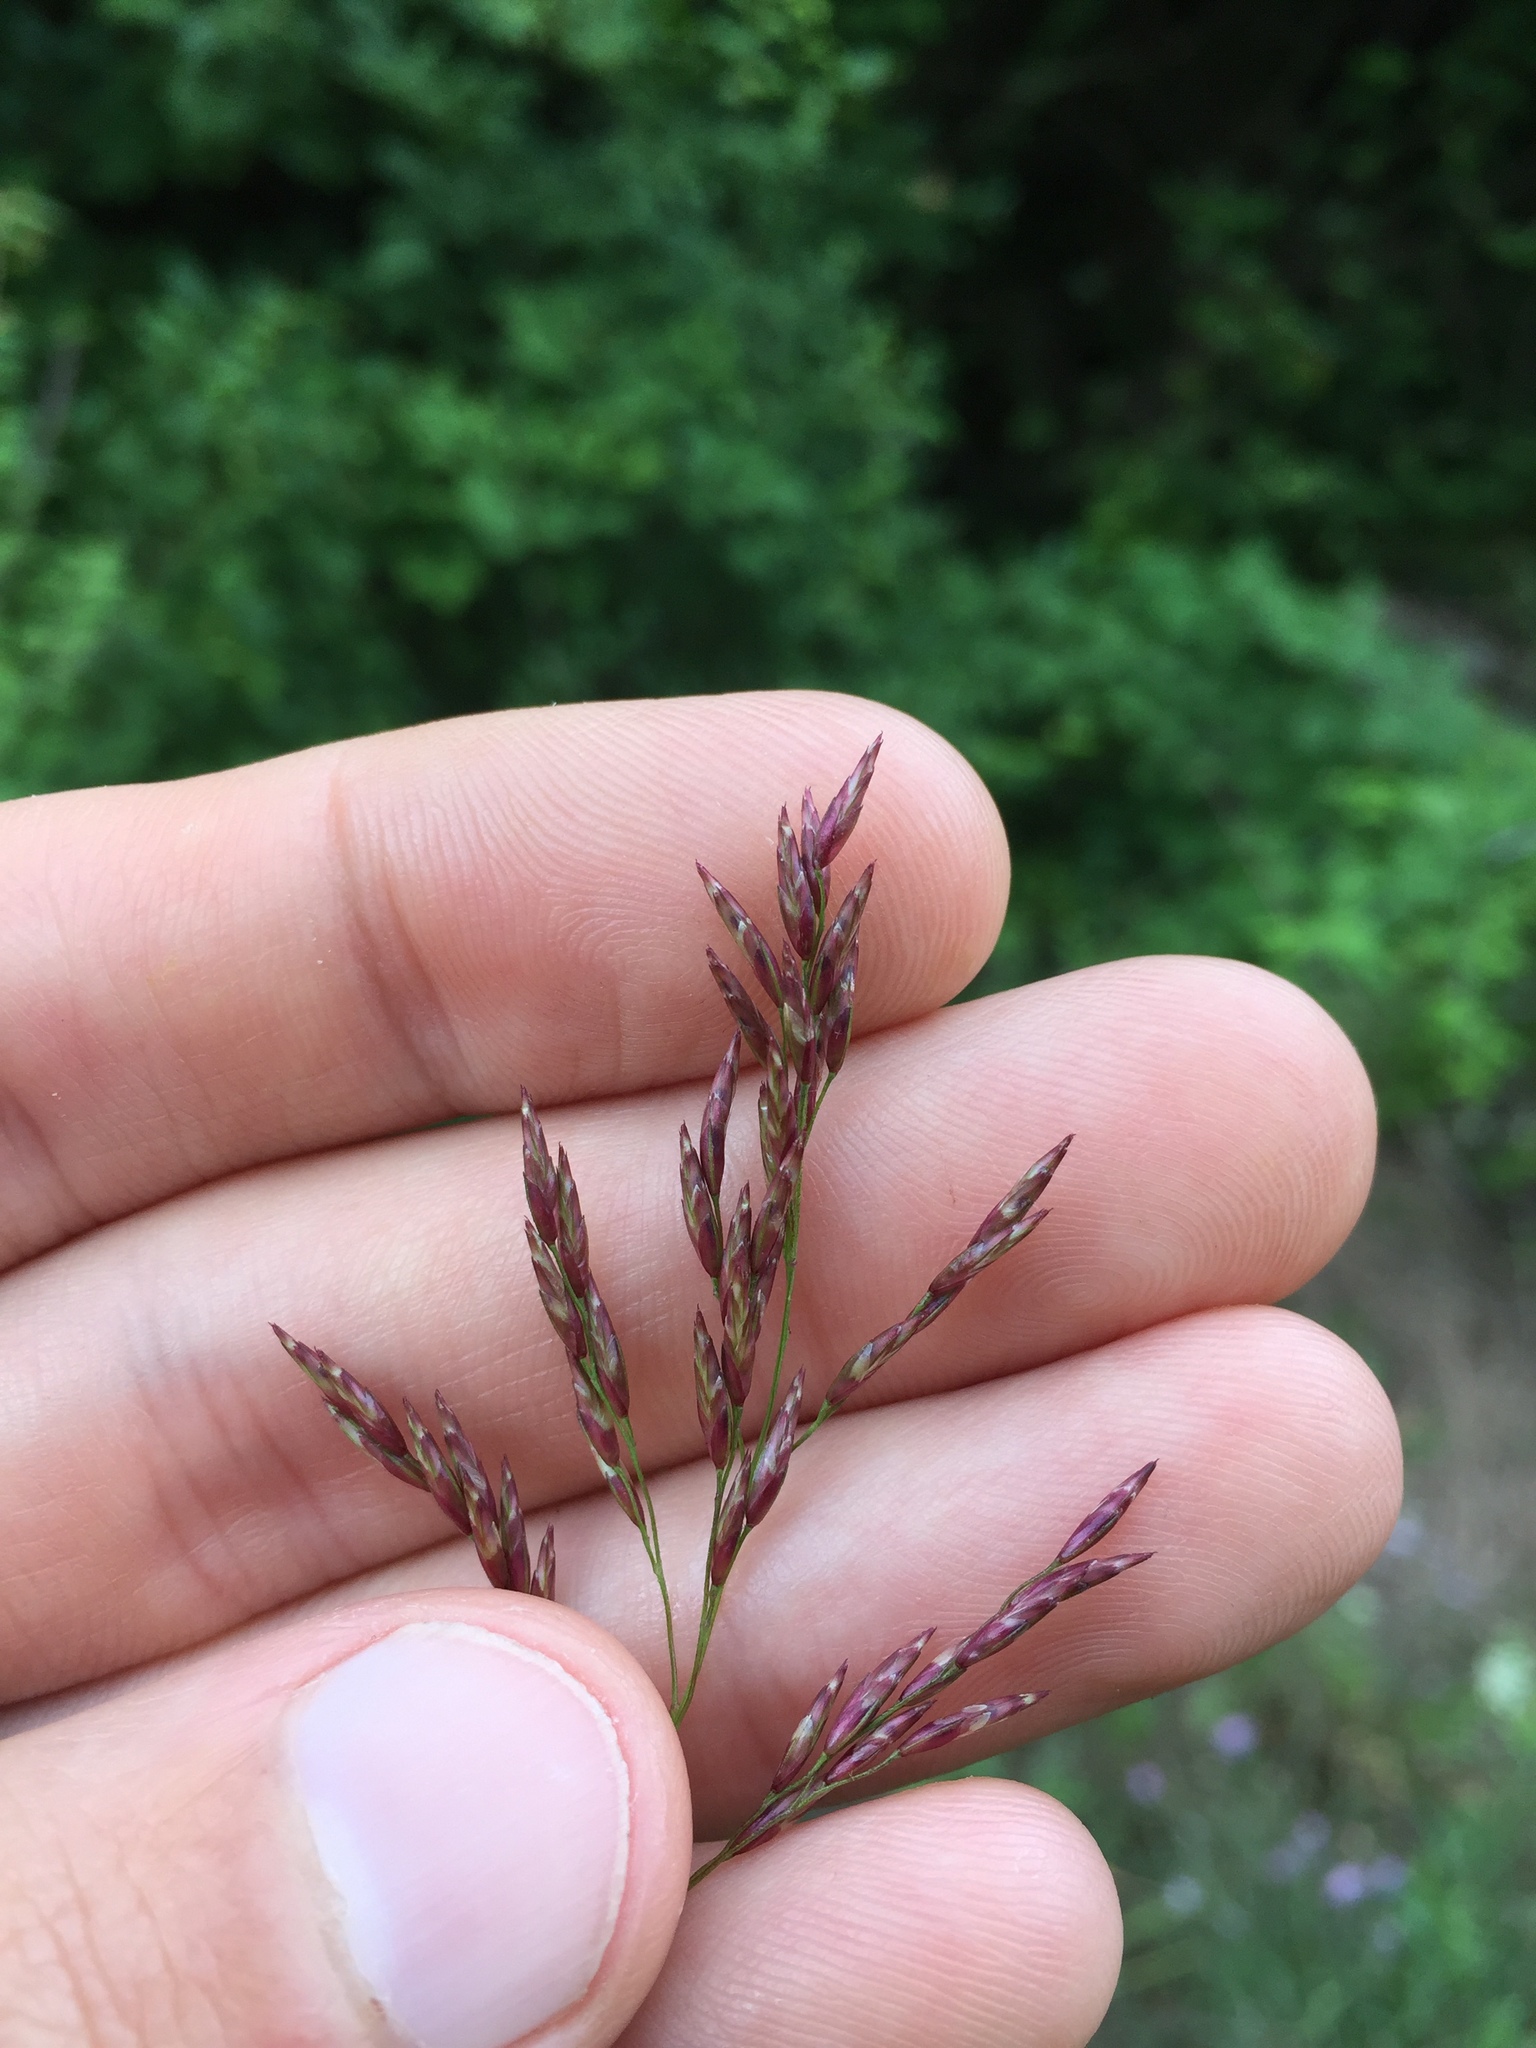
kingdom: Plantae
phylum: Tracheophyta
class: Liliopsida
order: Poales
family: Poaceae
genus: Tridens
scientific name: Tridens flavus
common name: Purpletop
